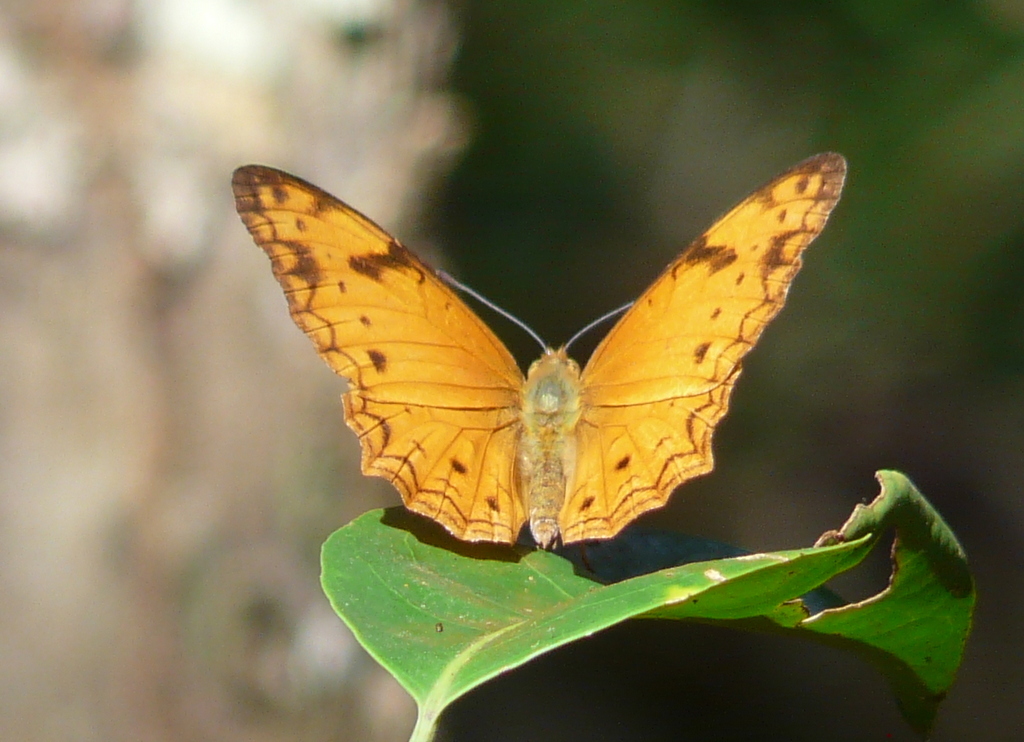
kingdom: Animalia
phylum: Arthropoda
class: Insecta
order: Lepidoptera
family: Nymphalidae
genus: Lachnoptera
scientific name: Lachnoptera ayresii
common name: Blotched leopard
